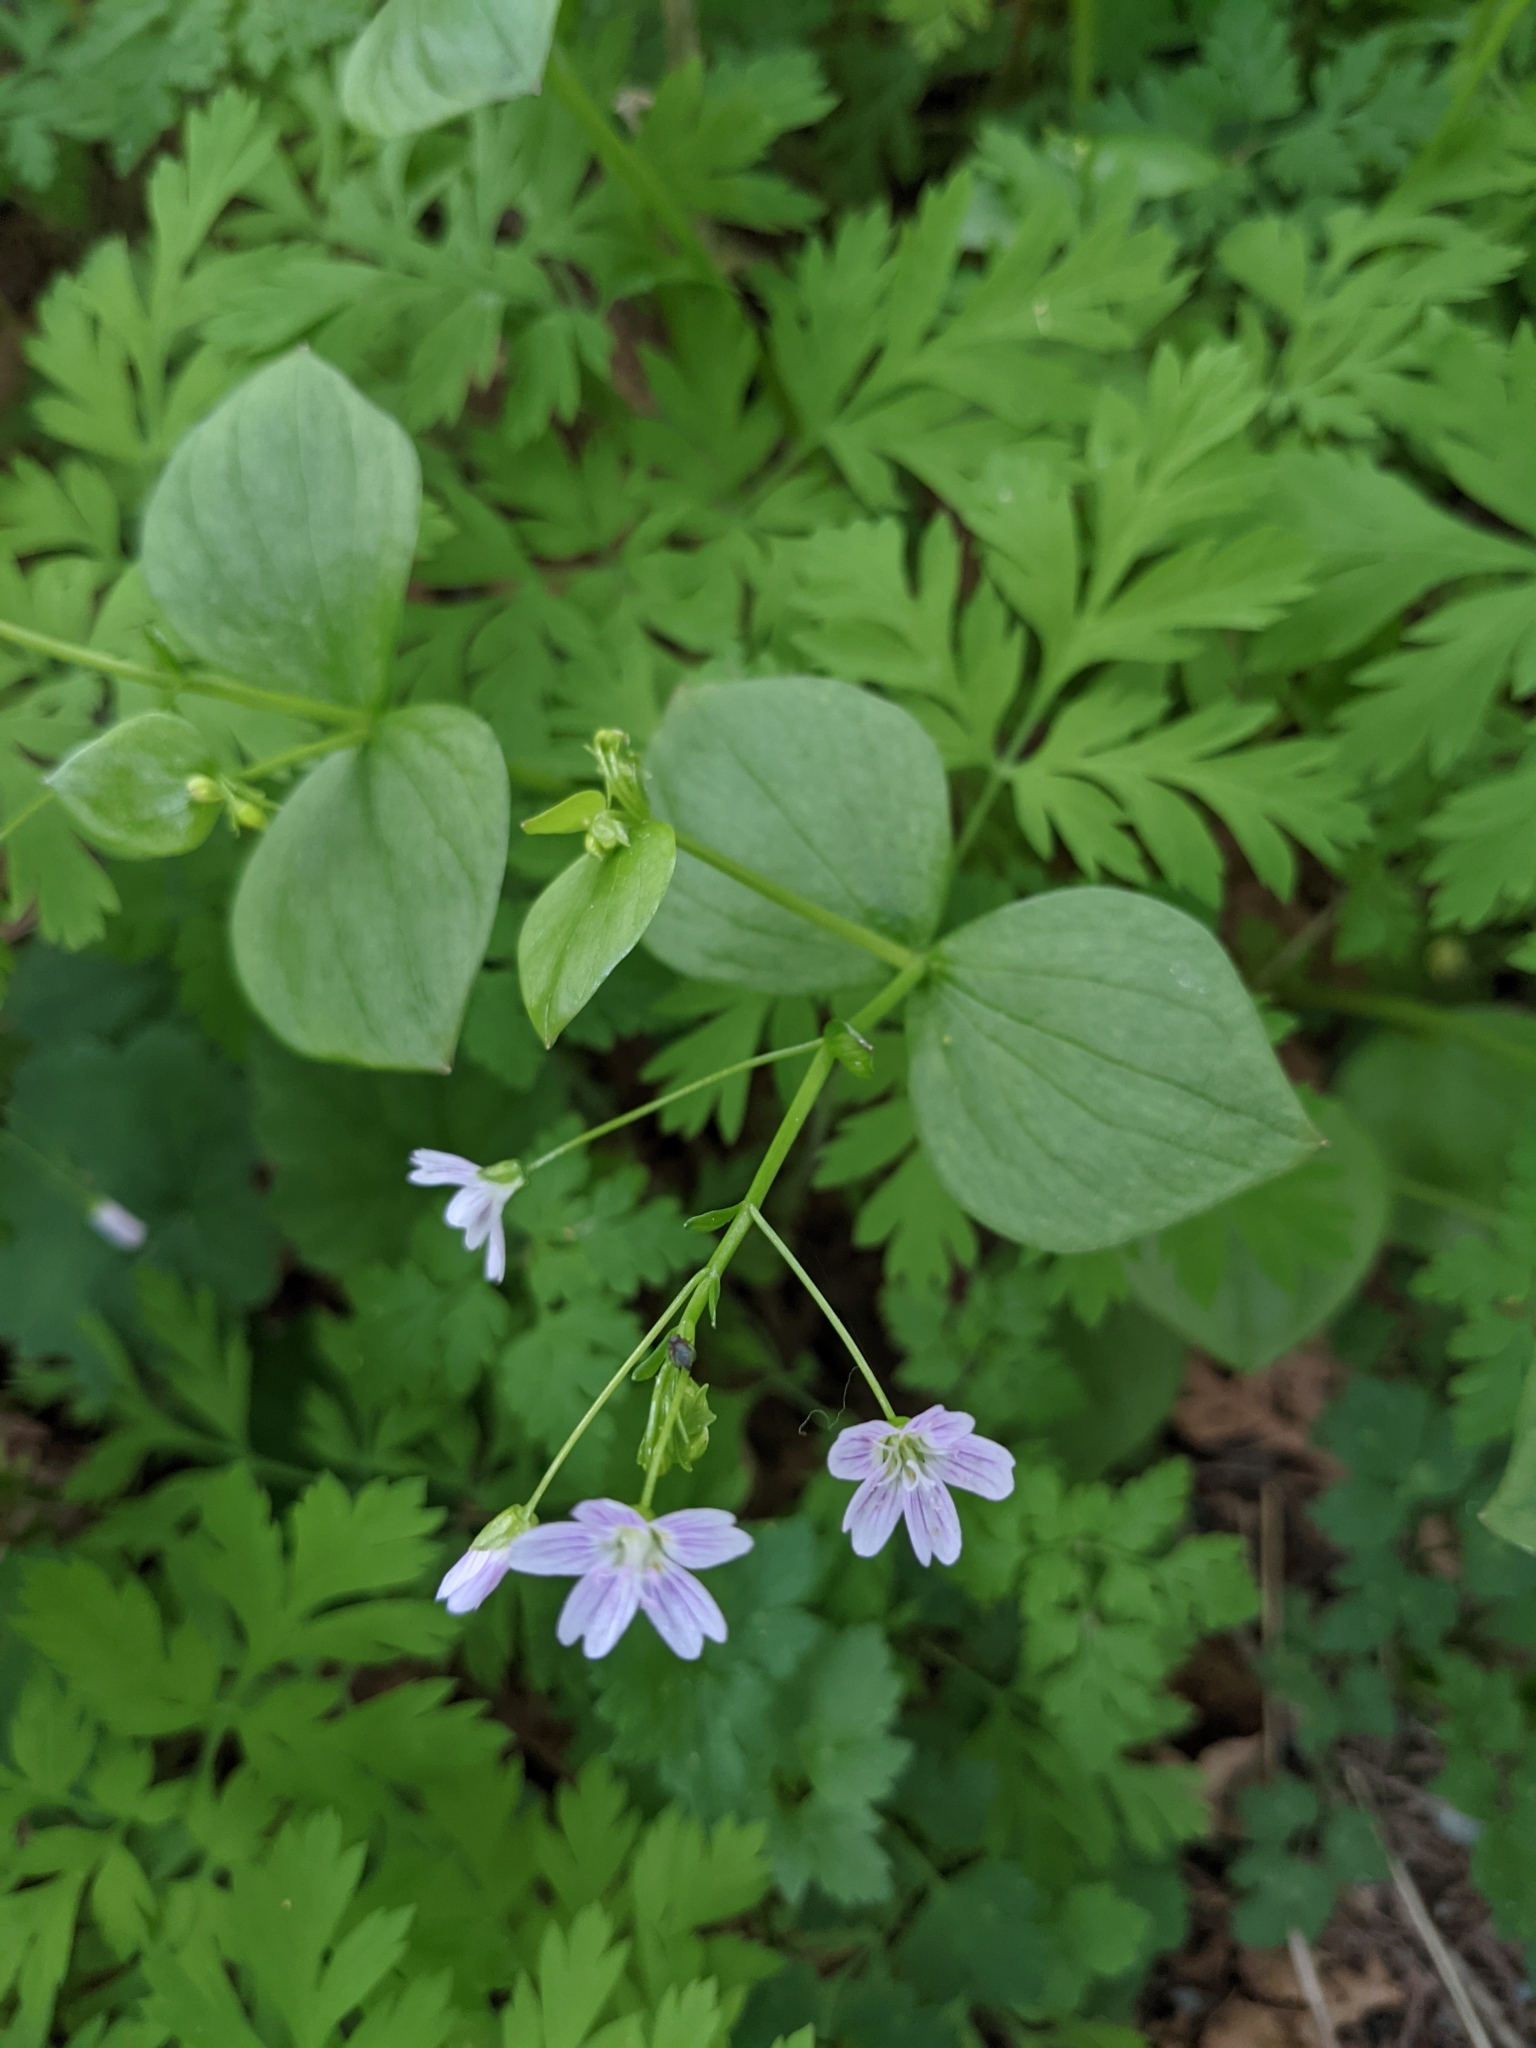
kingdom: Plantae
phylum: Tracheophyta
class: Magnoliopsida
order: Caryophyllales
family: Montiaceae
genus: Claytonia
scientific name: Claytonia sibirica
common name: Pink purslane
